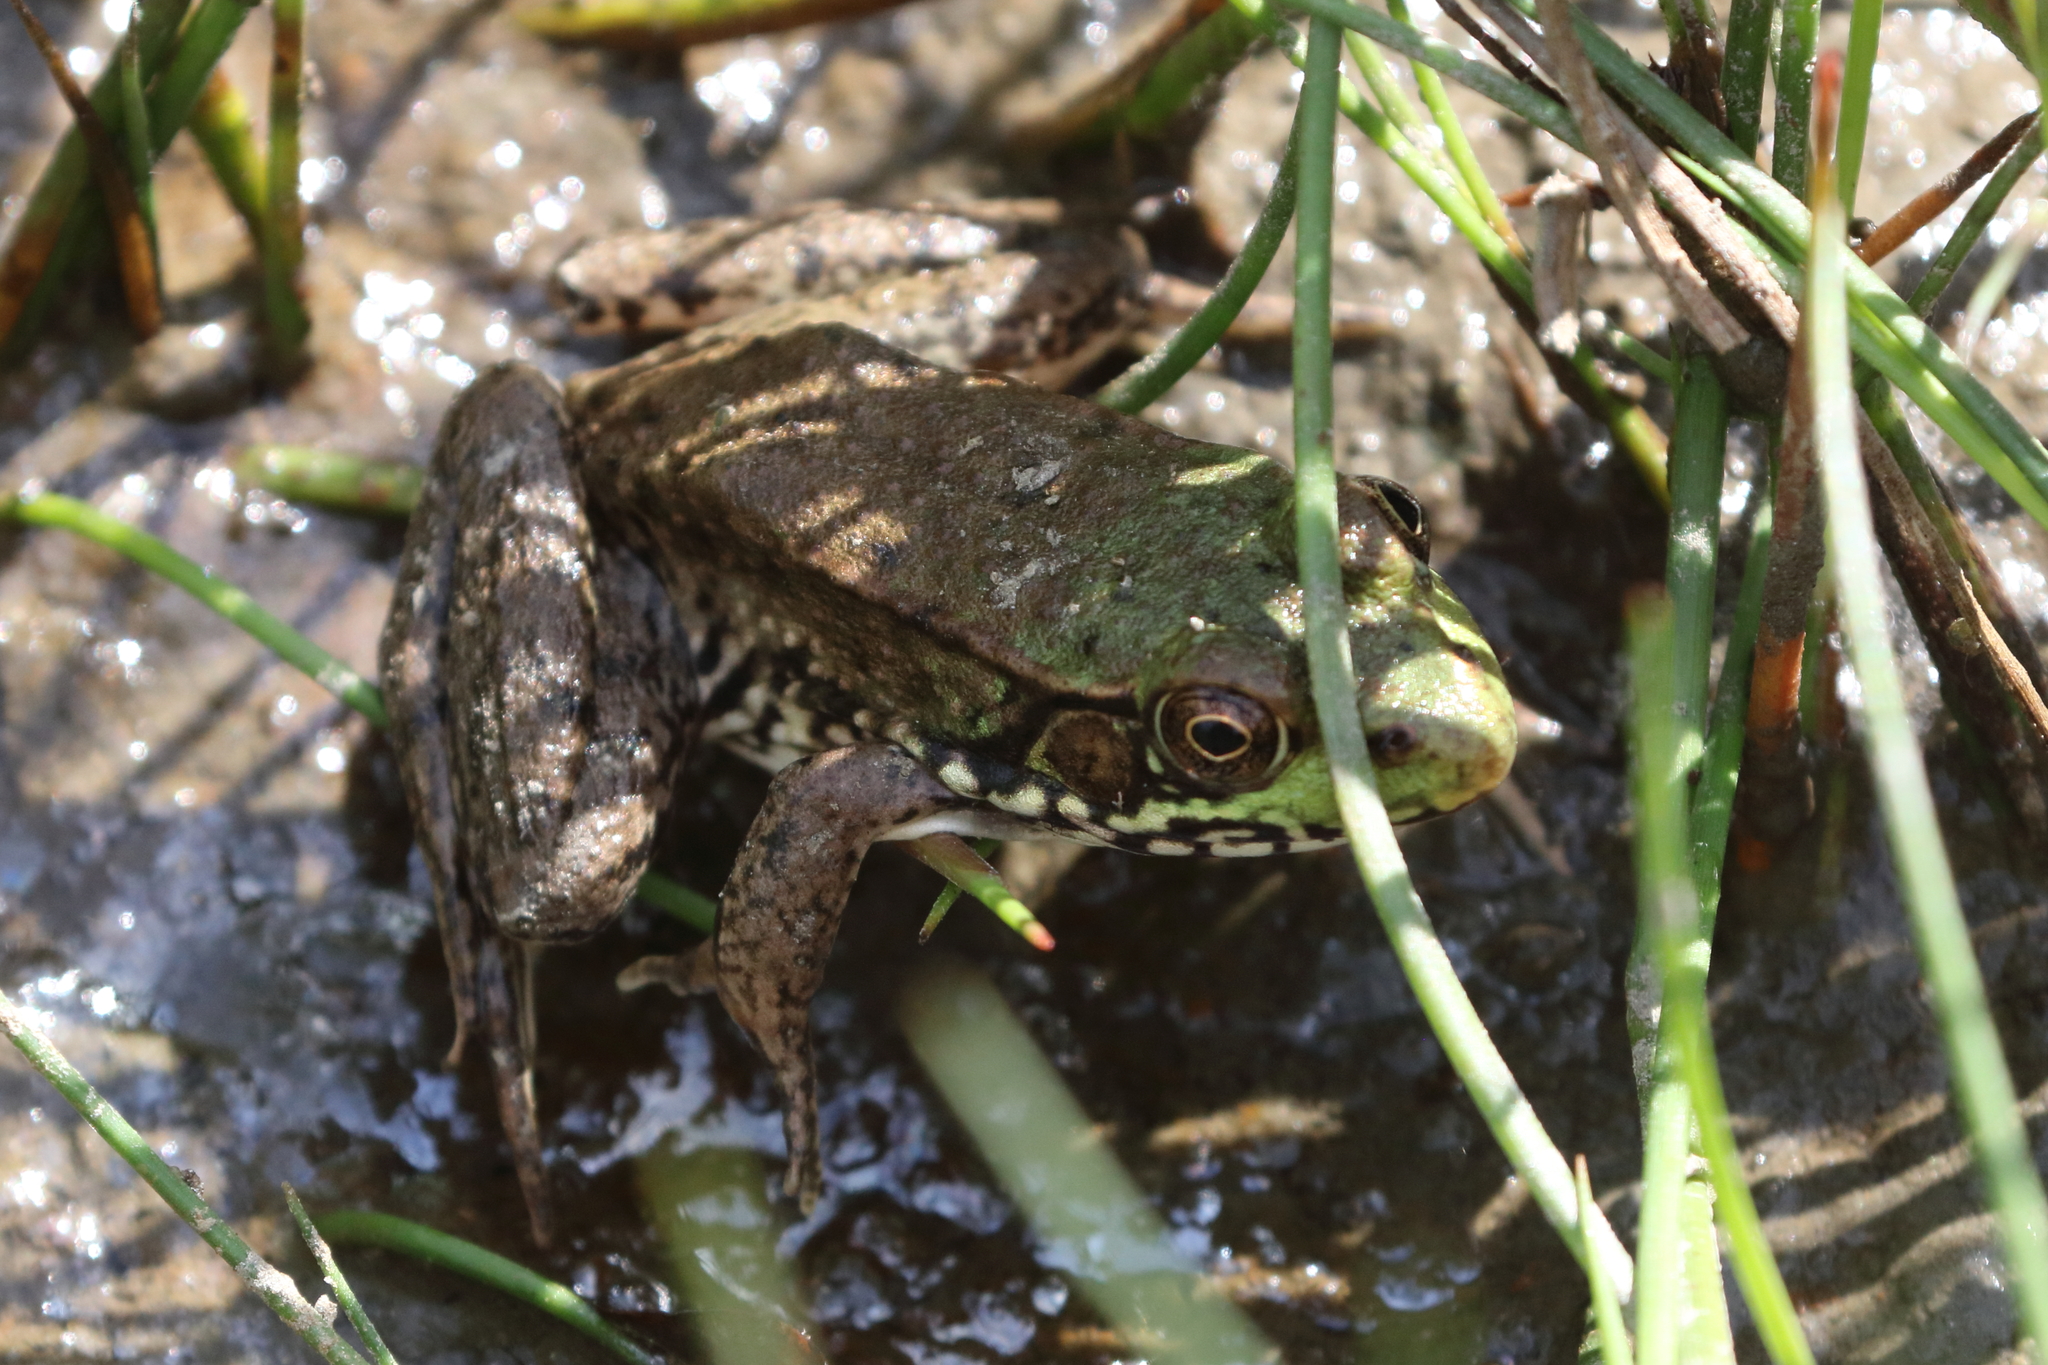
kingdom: Animalia
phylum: Chordata
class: Amphibia
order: Anura
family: Ranidae
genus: Lithobates
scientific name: Lithobates clamitans
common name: Green frog
